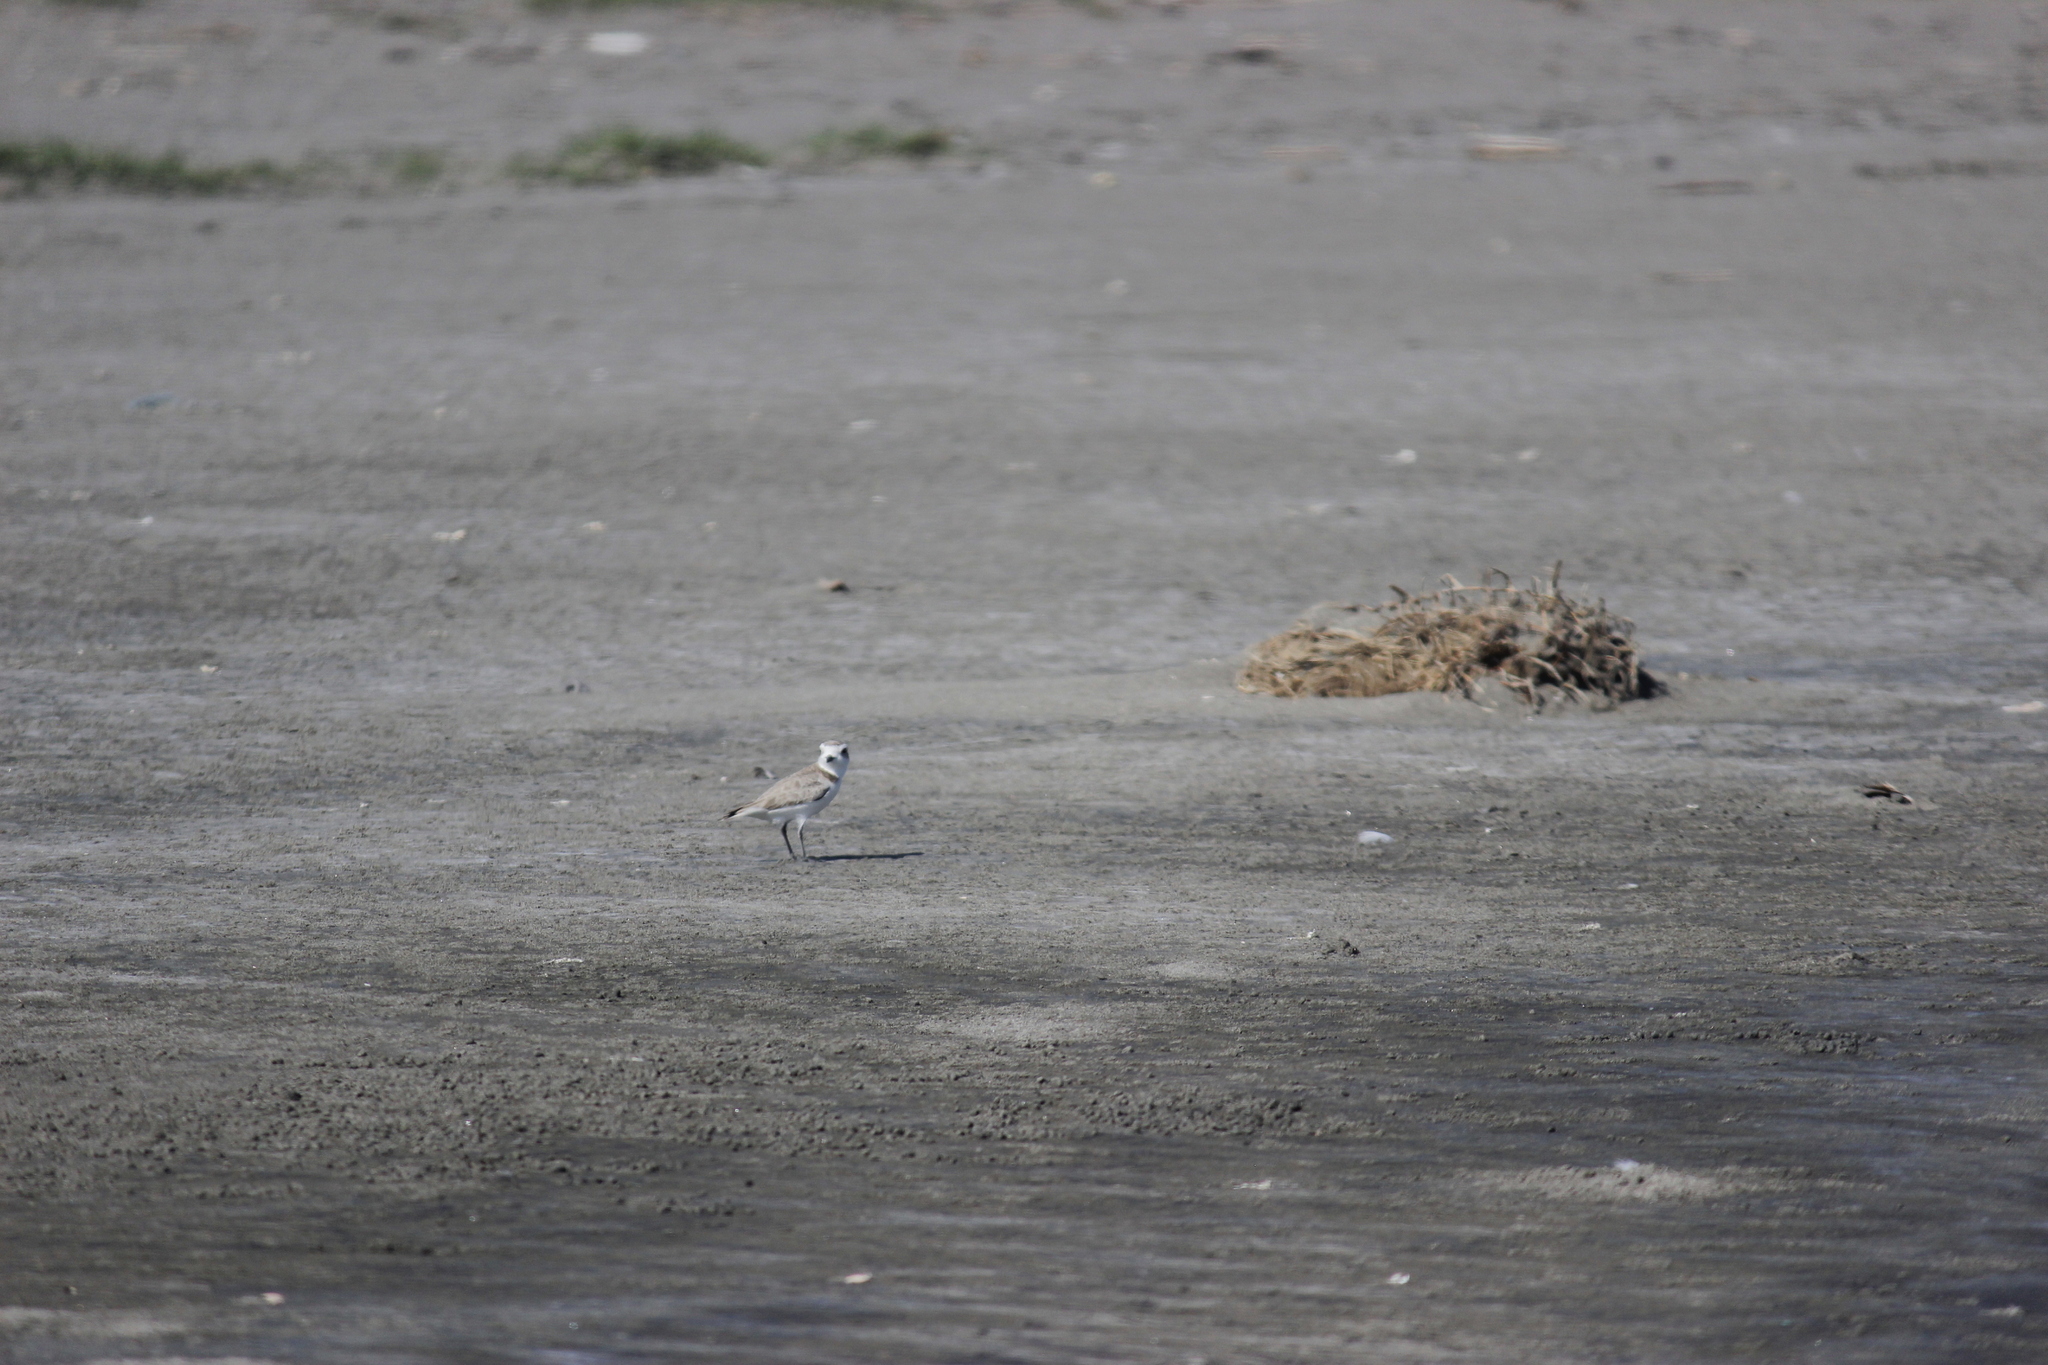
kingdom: Animalia
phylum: Chordata
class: Aves
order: Charadriiformes
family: Charadriidae
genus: Anarhynchus
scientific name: Anarhynchus
